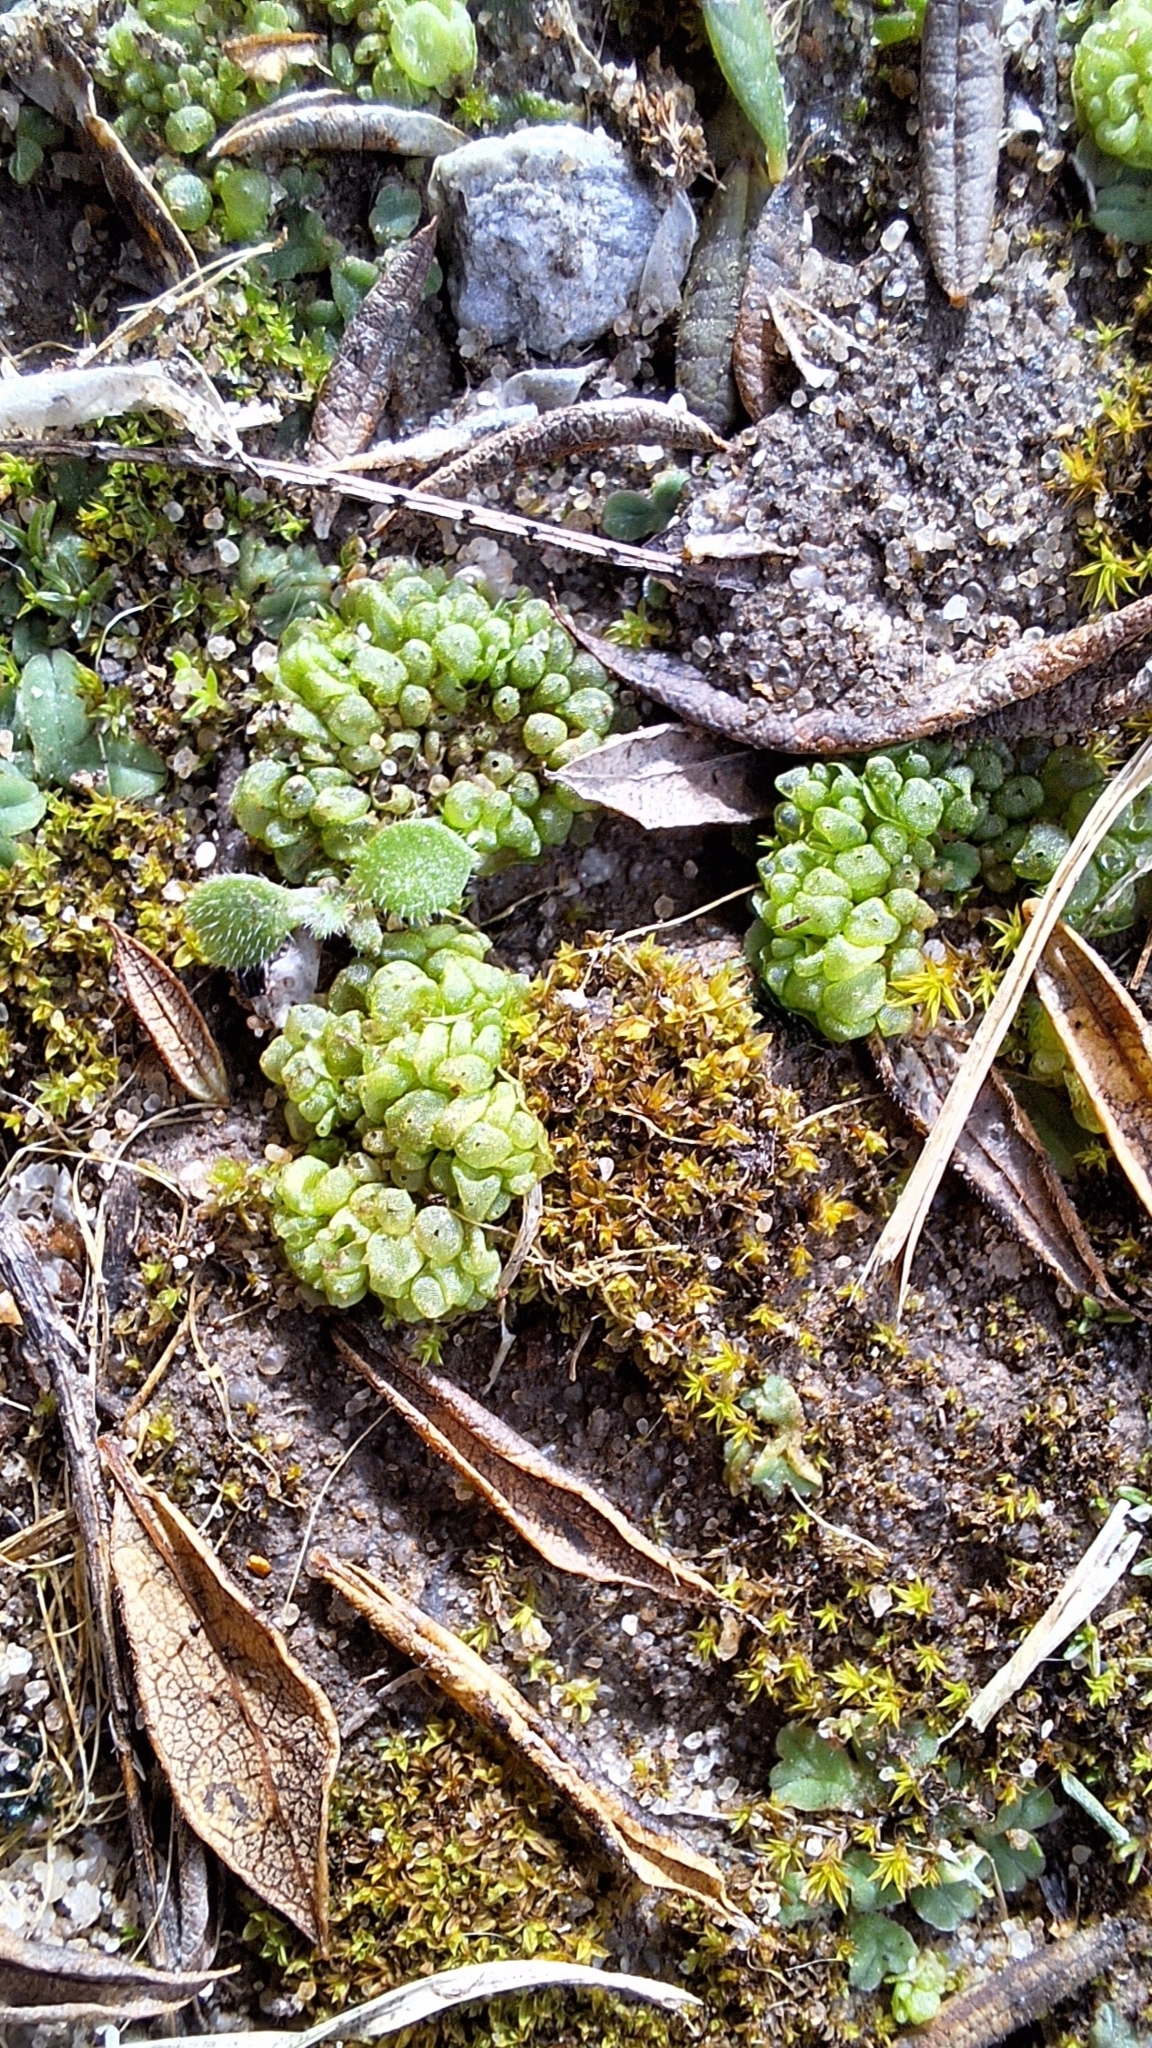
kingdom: Plantae
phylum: Marchantiophyta
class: Marchantiopsida
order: Sphaerocarpales
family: Sphaerocarpaceae
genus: Sphaerocarpos
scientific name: Sphaerocarpos texanus
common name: Texas balloonwort
